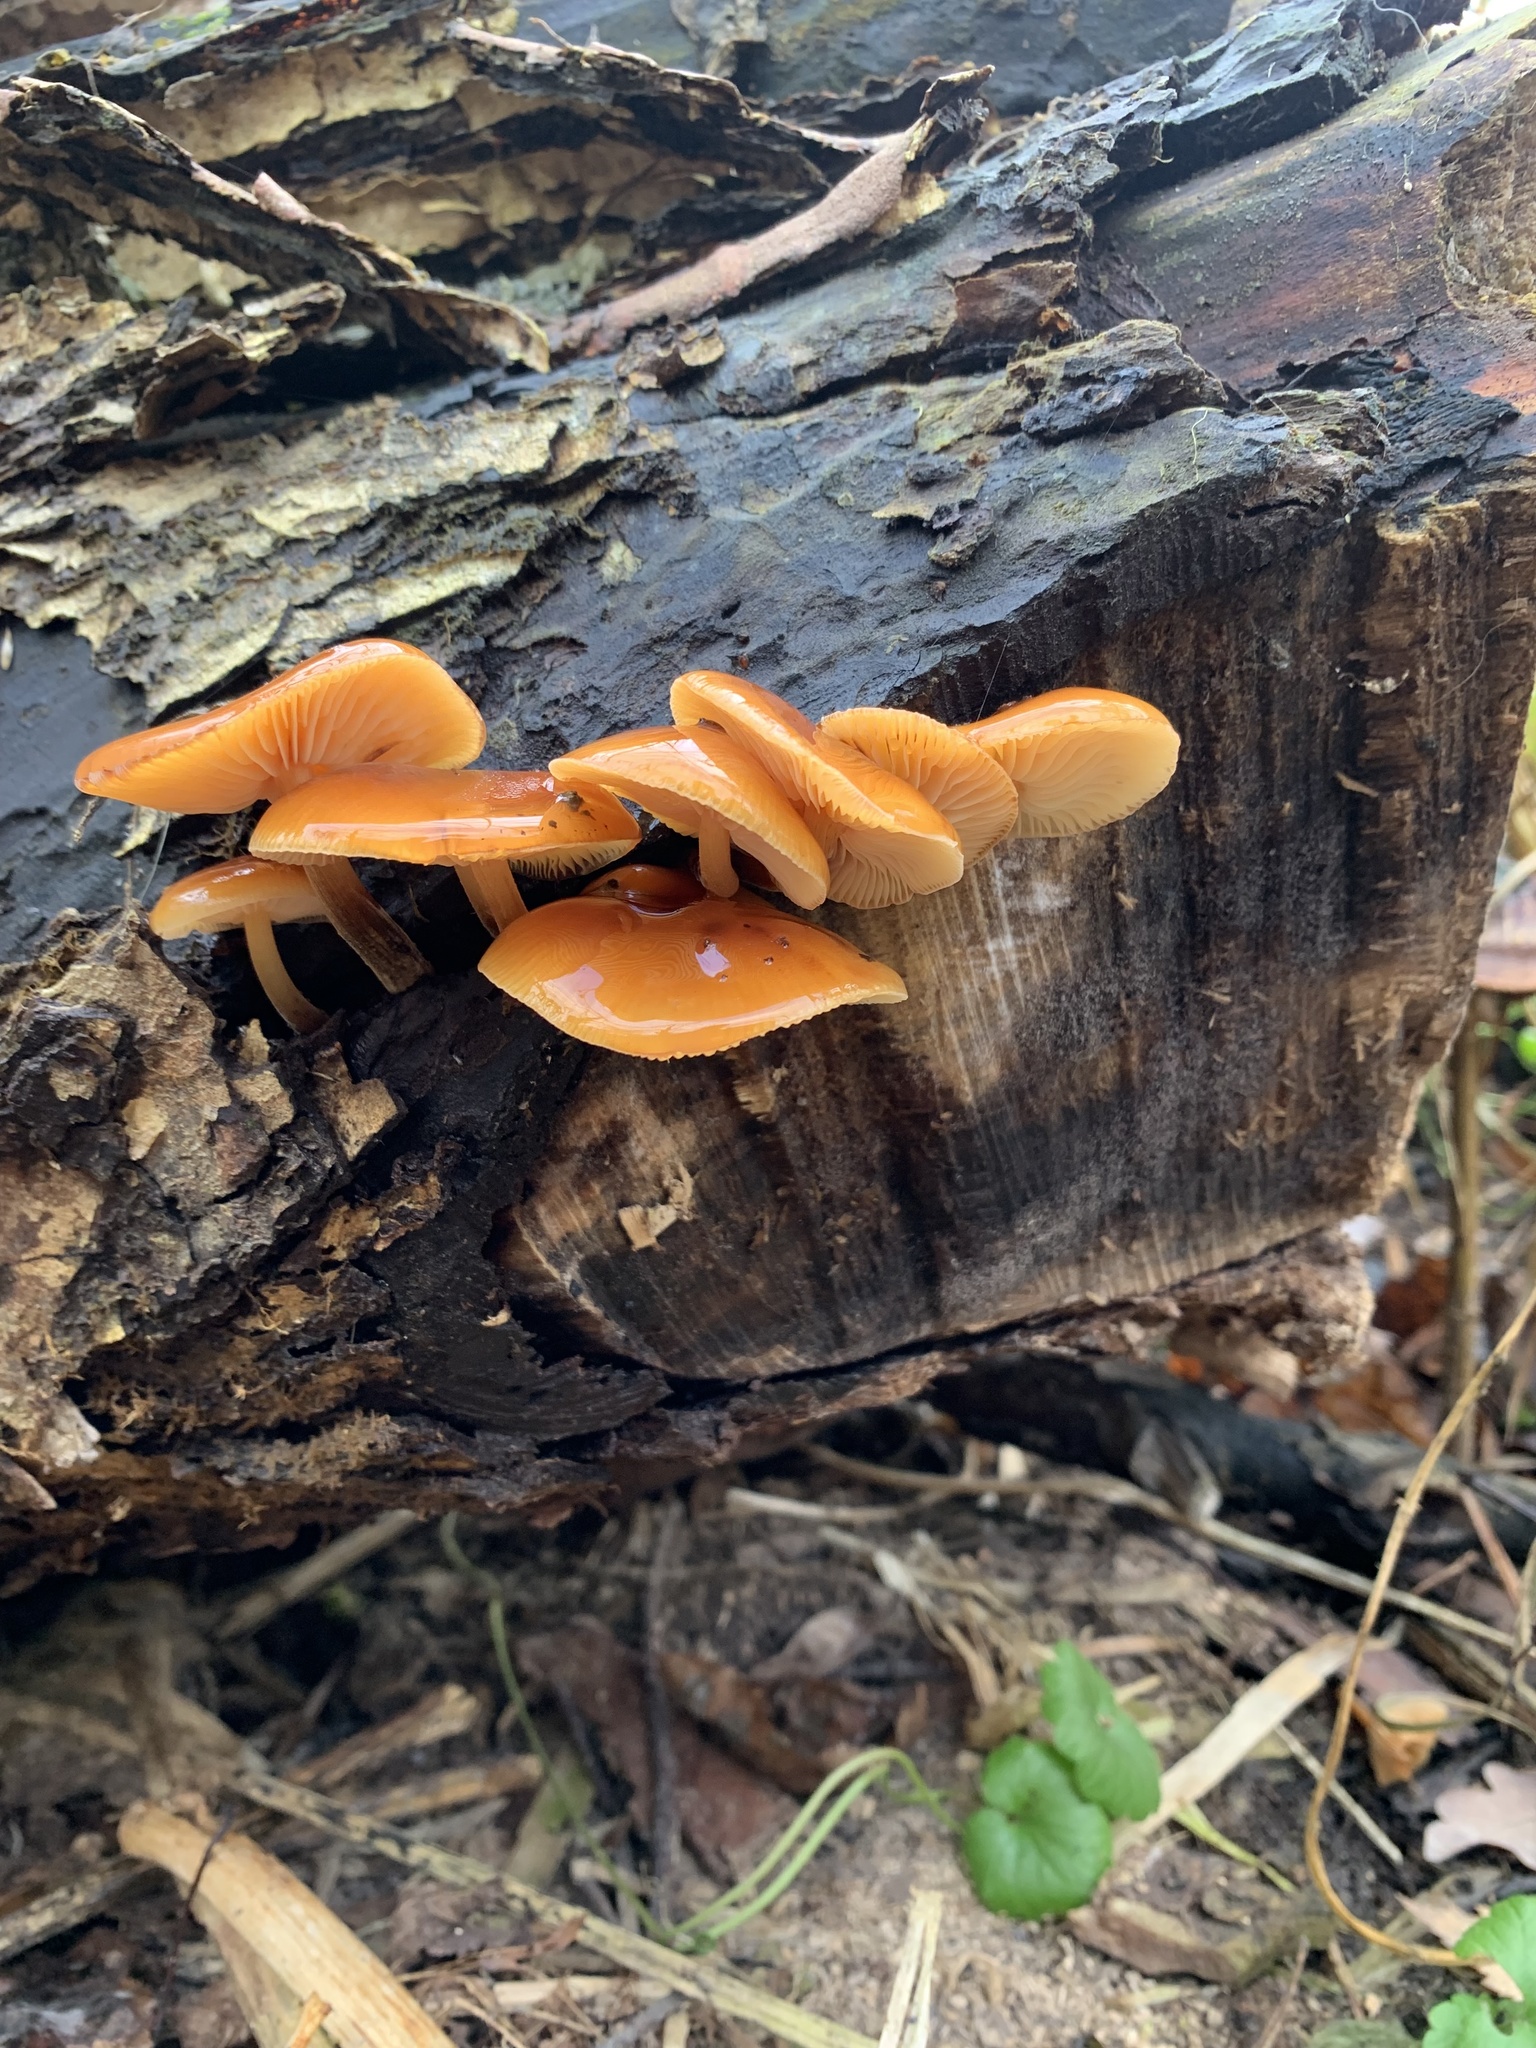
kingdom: Fungi
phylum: Basidiomycota
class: Agaricomycetes
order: Agaricales
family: Physalacriaceae
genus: Flammulina
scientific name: Flammulina
